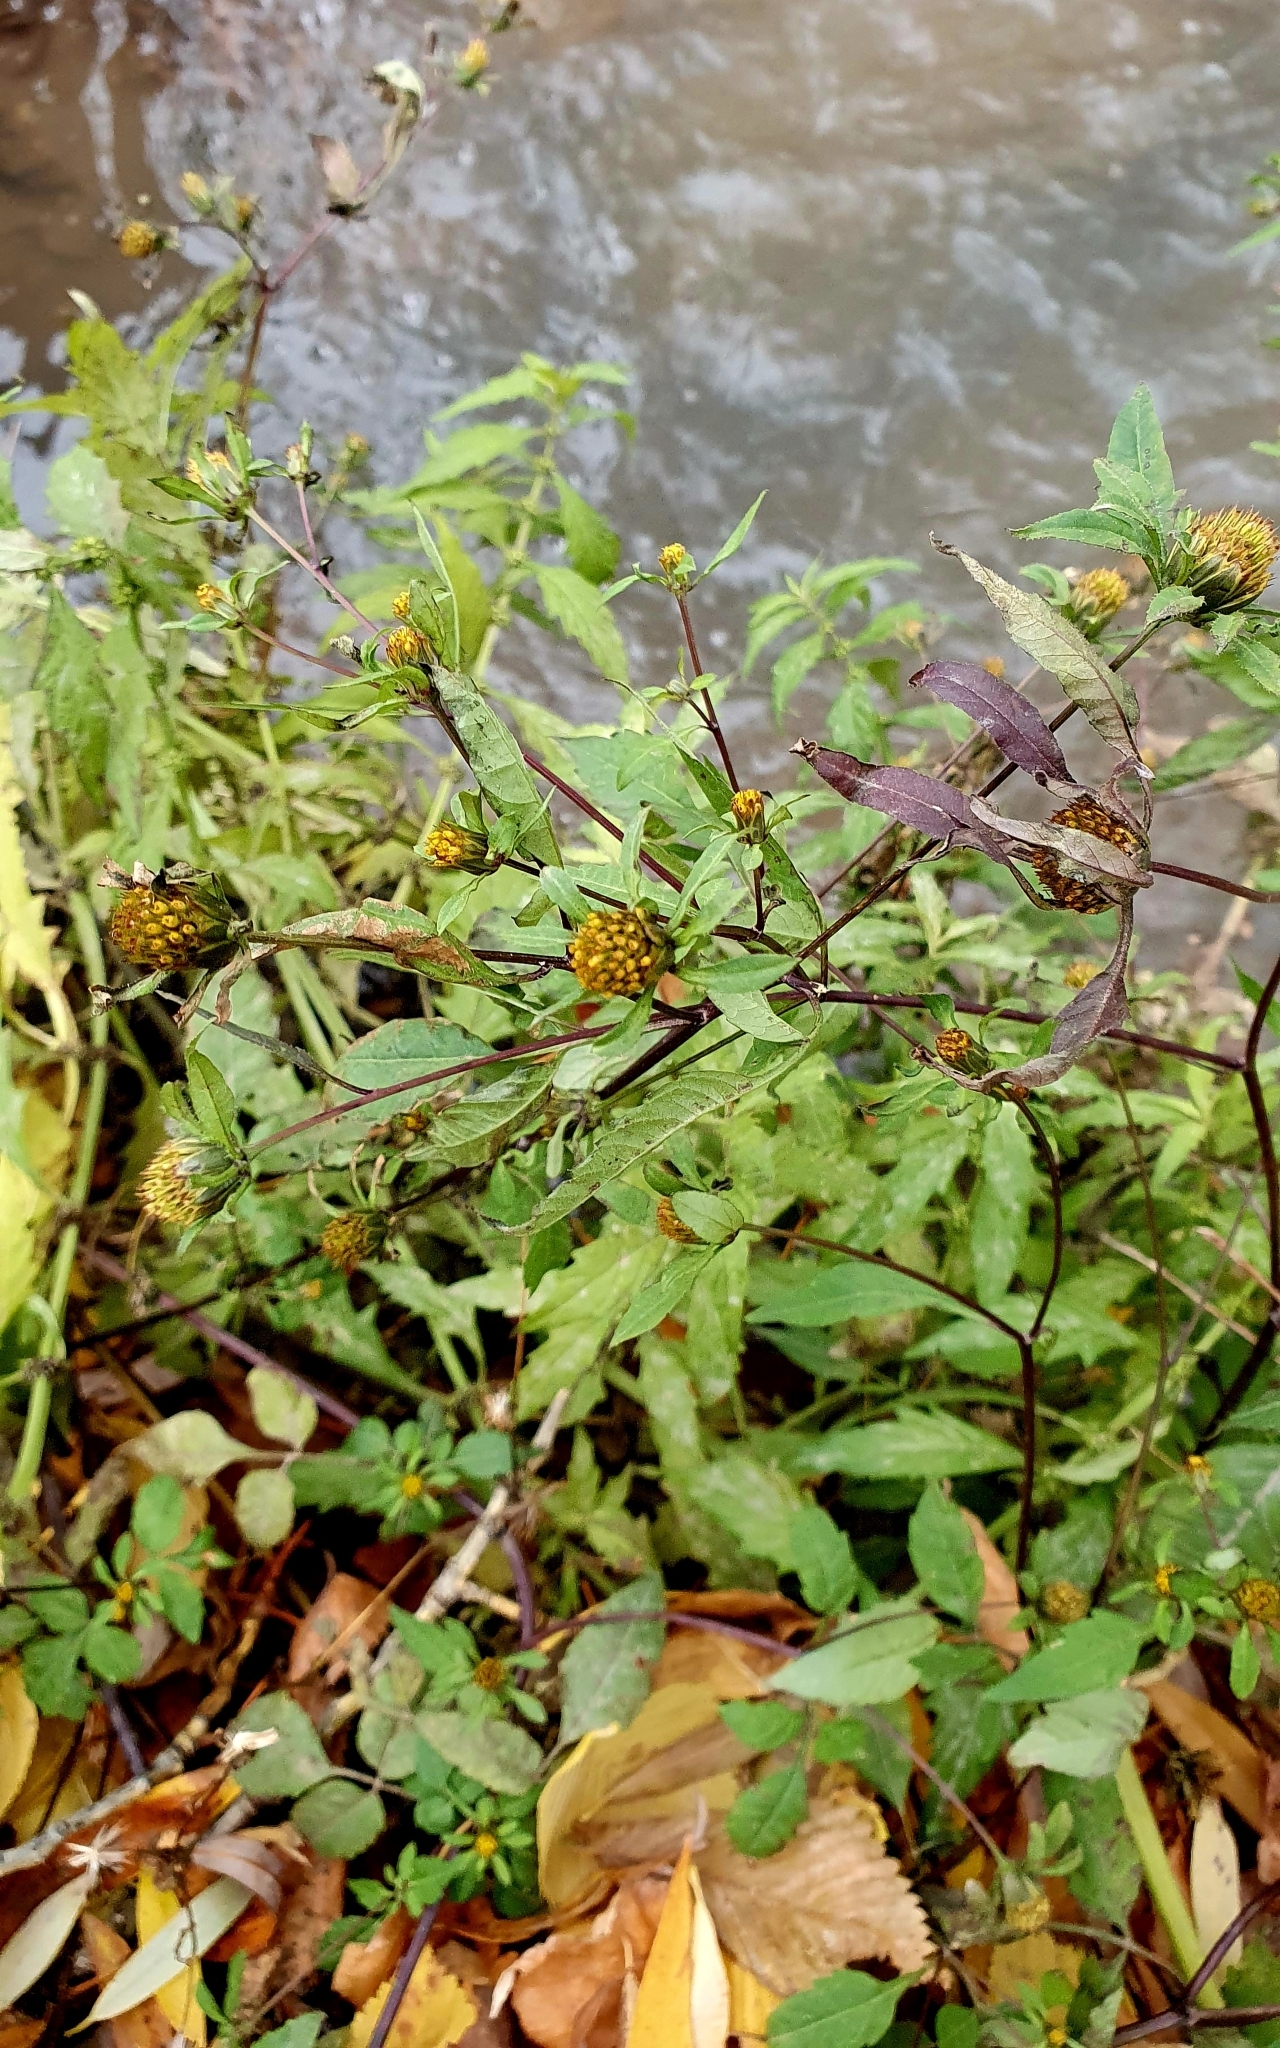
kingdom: Plantae
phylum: Tracheophyta
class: Magnoliopsida
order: Asterales
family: Asteraceae
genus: Bidens
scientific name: Bidens frondosa
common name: Beggarticks
